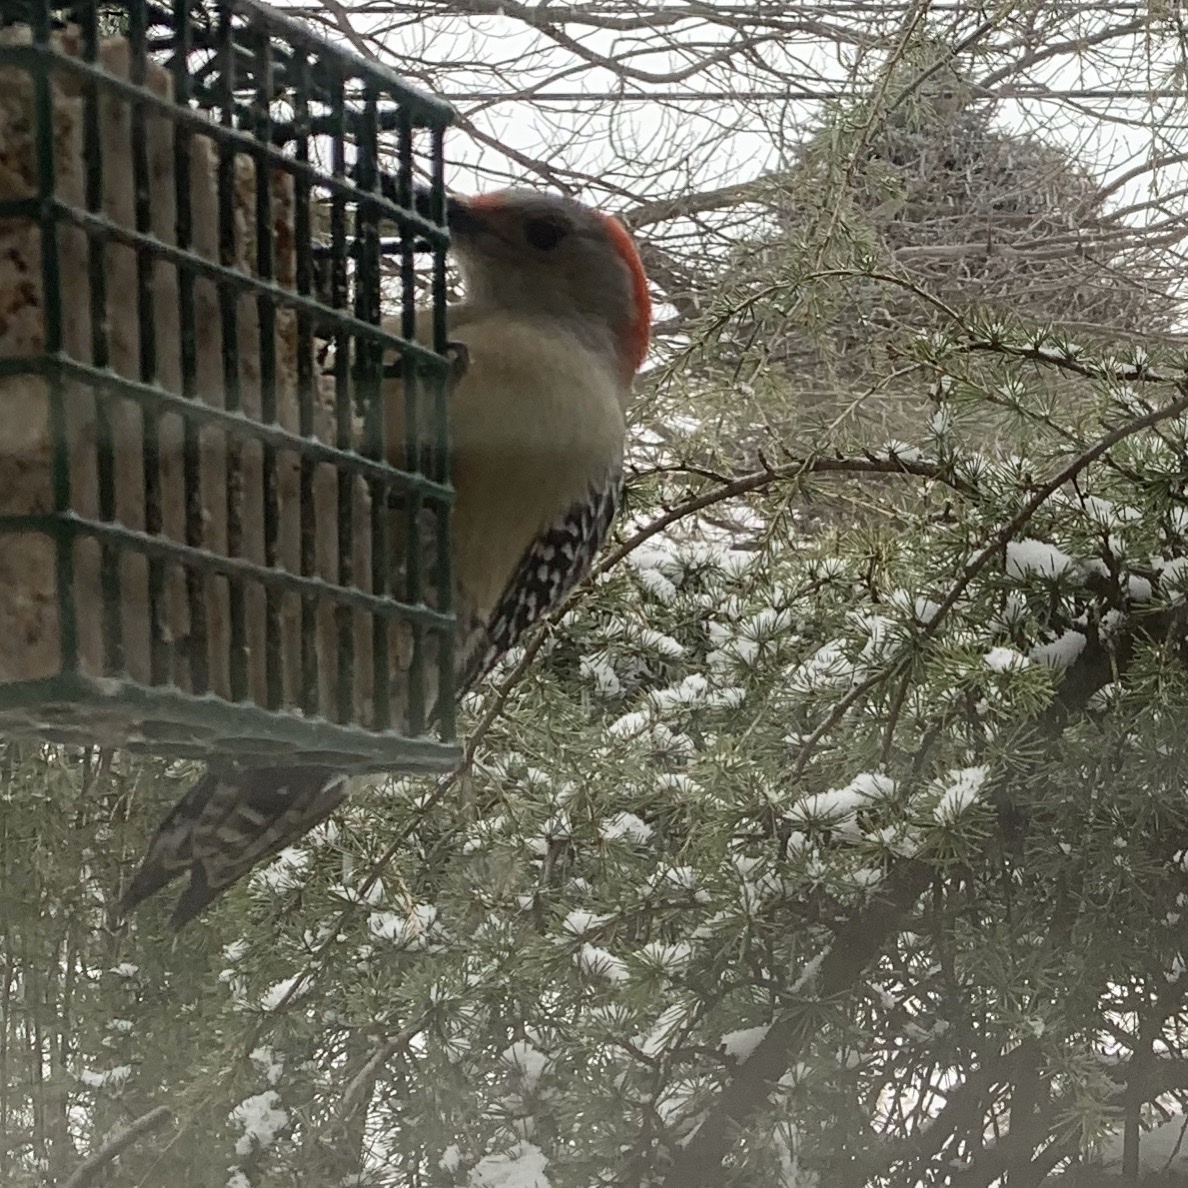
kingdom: Animalia
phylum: Chordata
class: Aves
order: Piciformes
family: Picidae
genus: Melanerpes
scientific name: Melanerpes carolinus
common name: Red-bellied woodpecker
